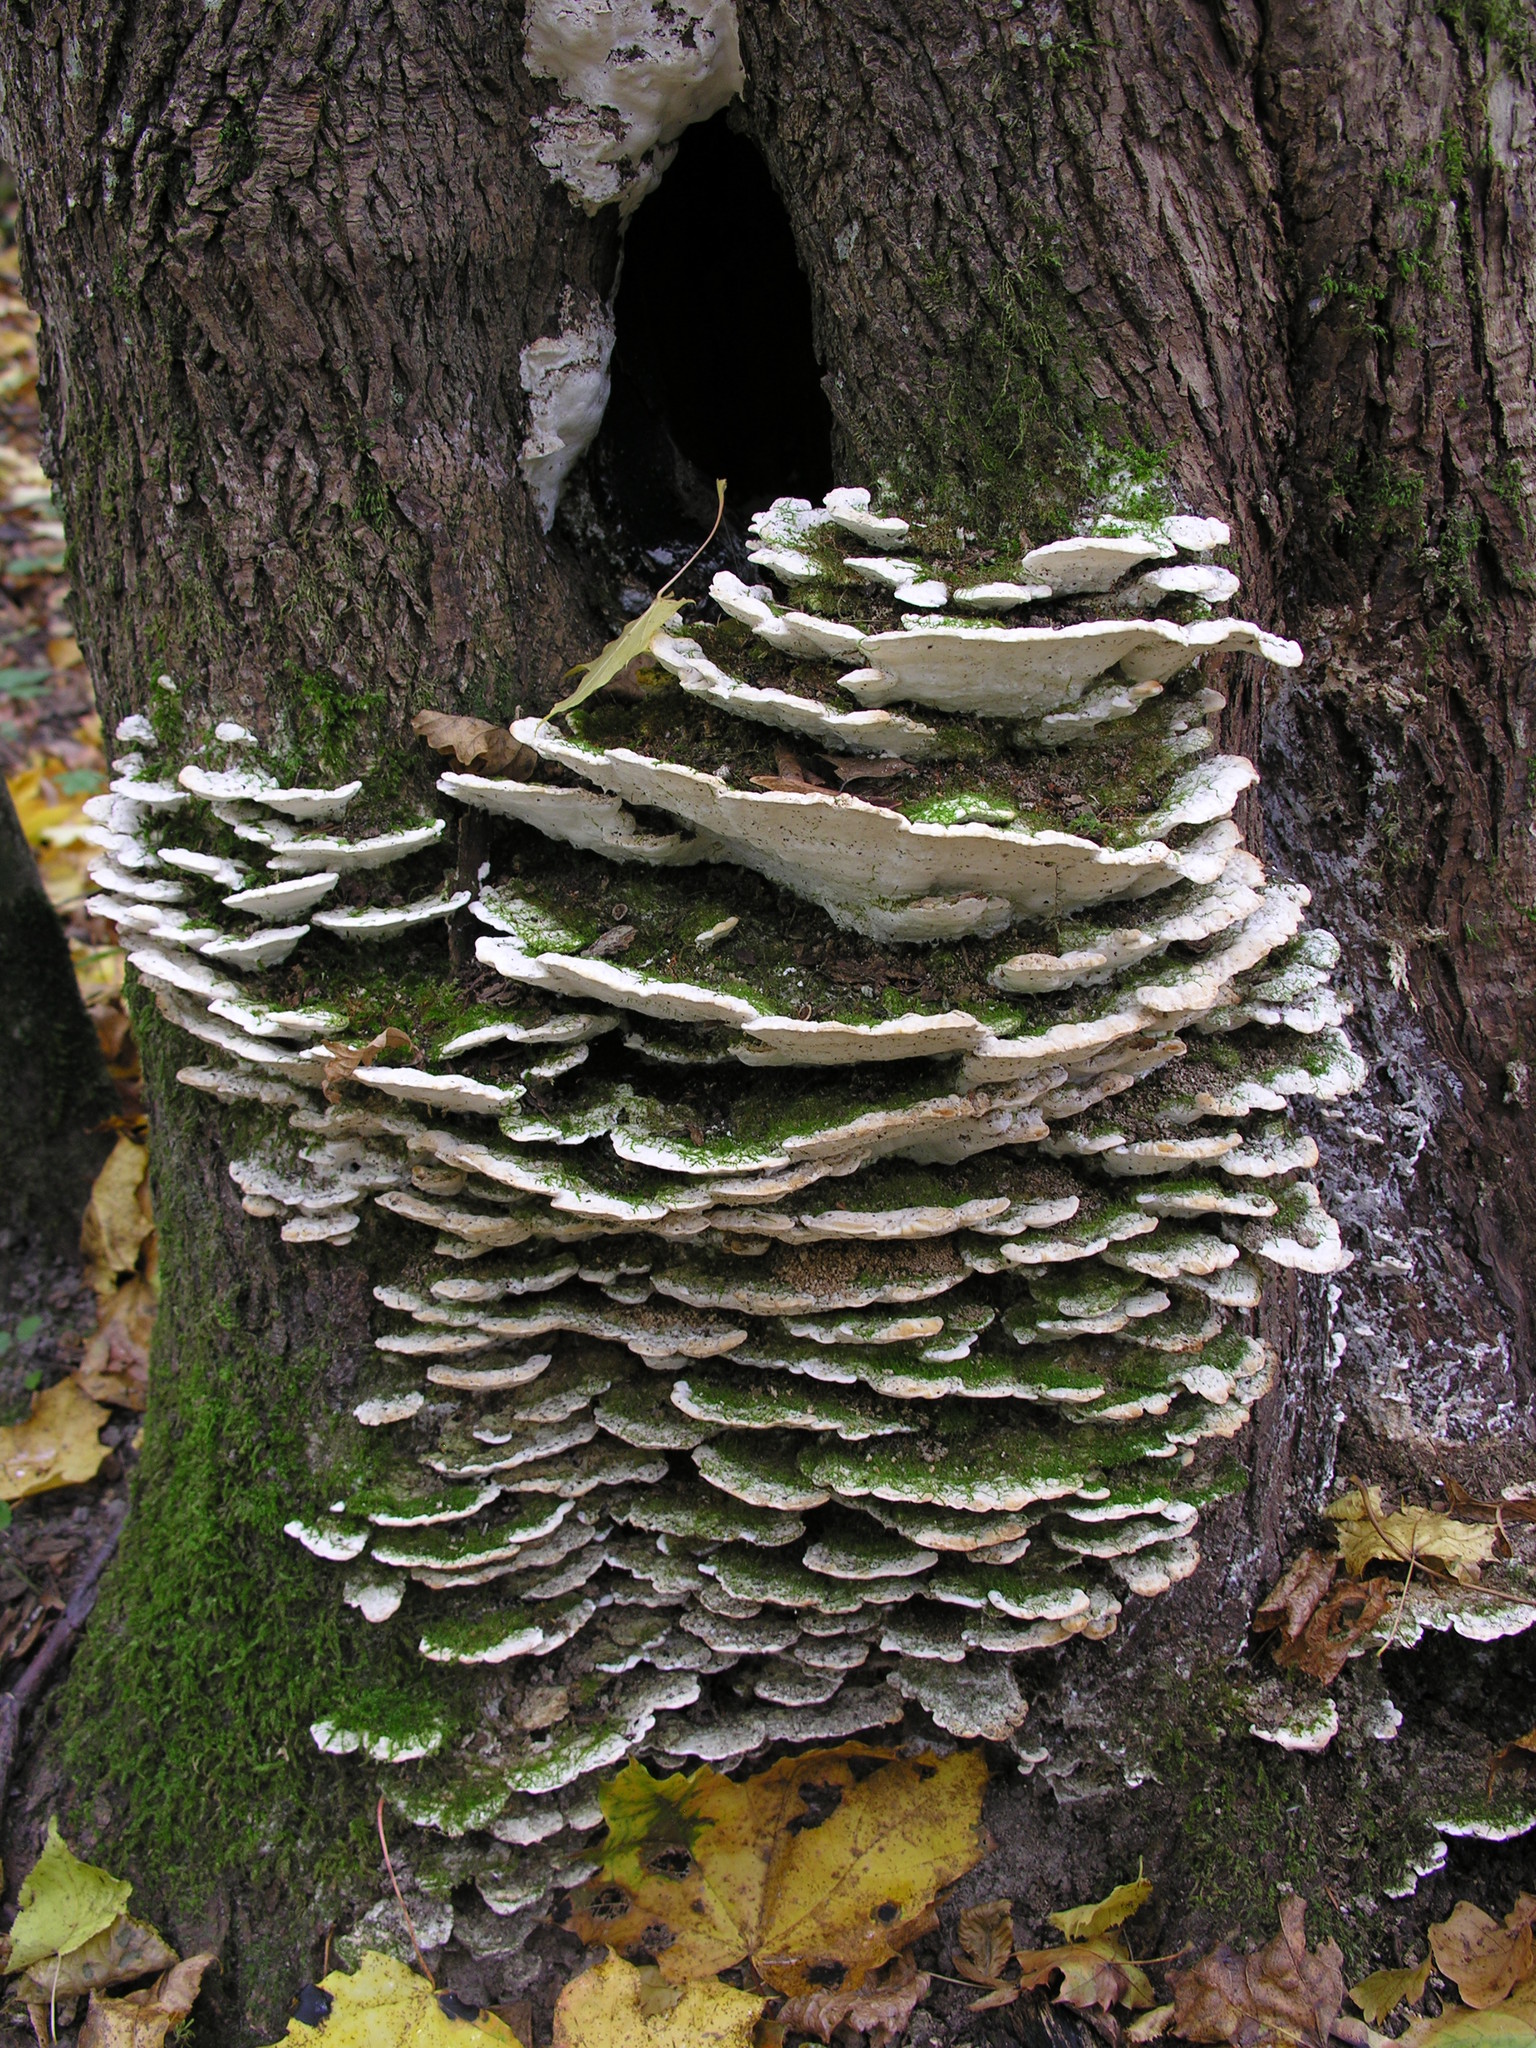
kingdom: Fungi
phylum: Basidiomycota
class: Agaricomycetes
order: Hymenochaetales
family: Oxyporaceae
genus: Oxyporus
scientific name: Oxyporus populinus
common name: Poplar bracket
